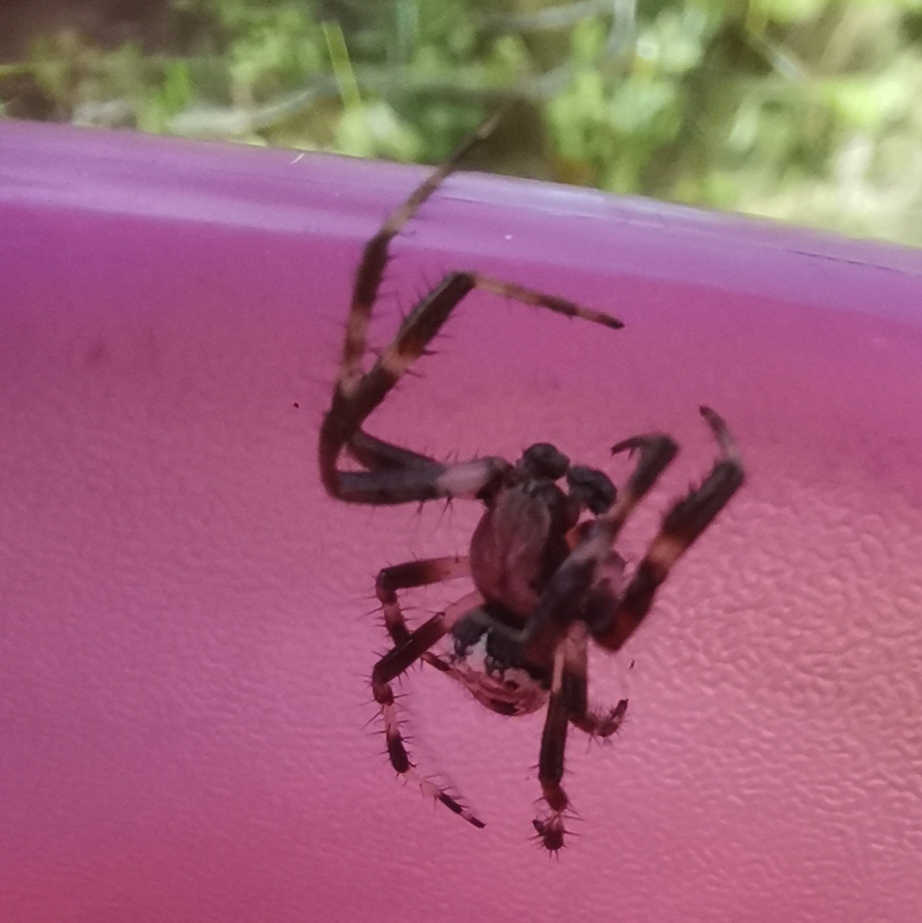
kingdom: Animalia
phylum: Arthropoda
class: Arachnida
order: Araneae
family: Araneidae
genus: Araneus
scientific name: Araneus marmoreus
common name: Marbled orbweaver
